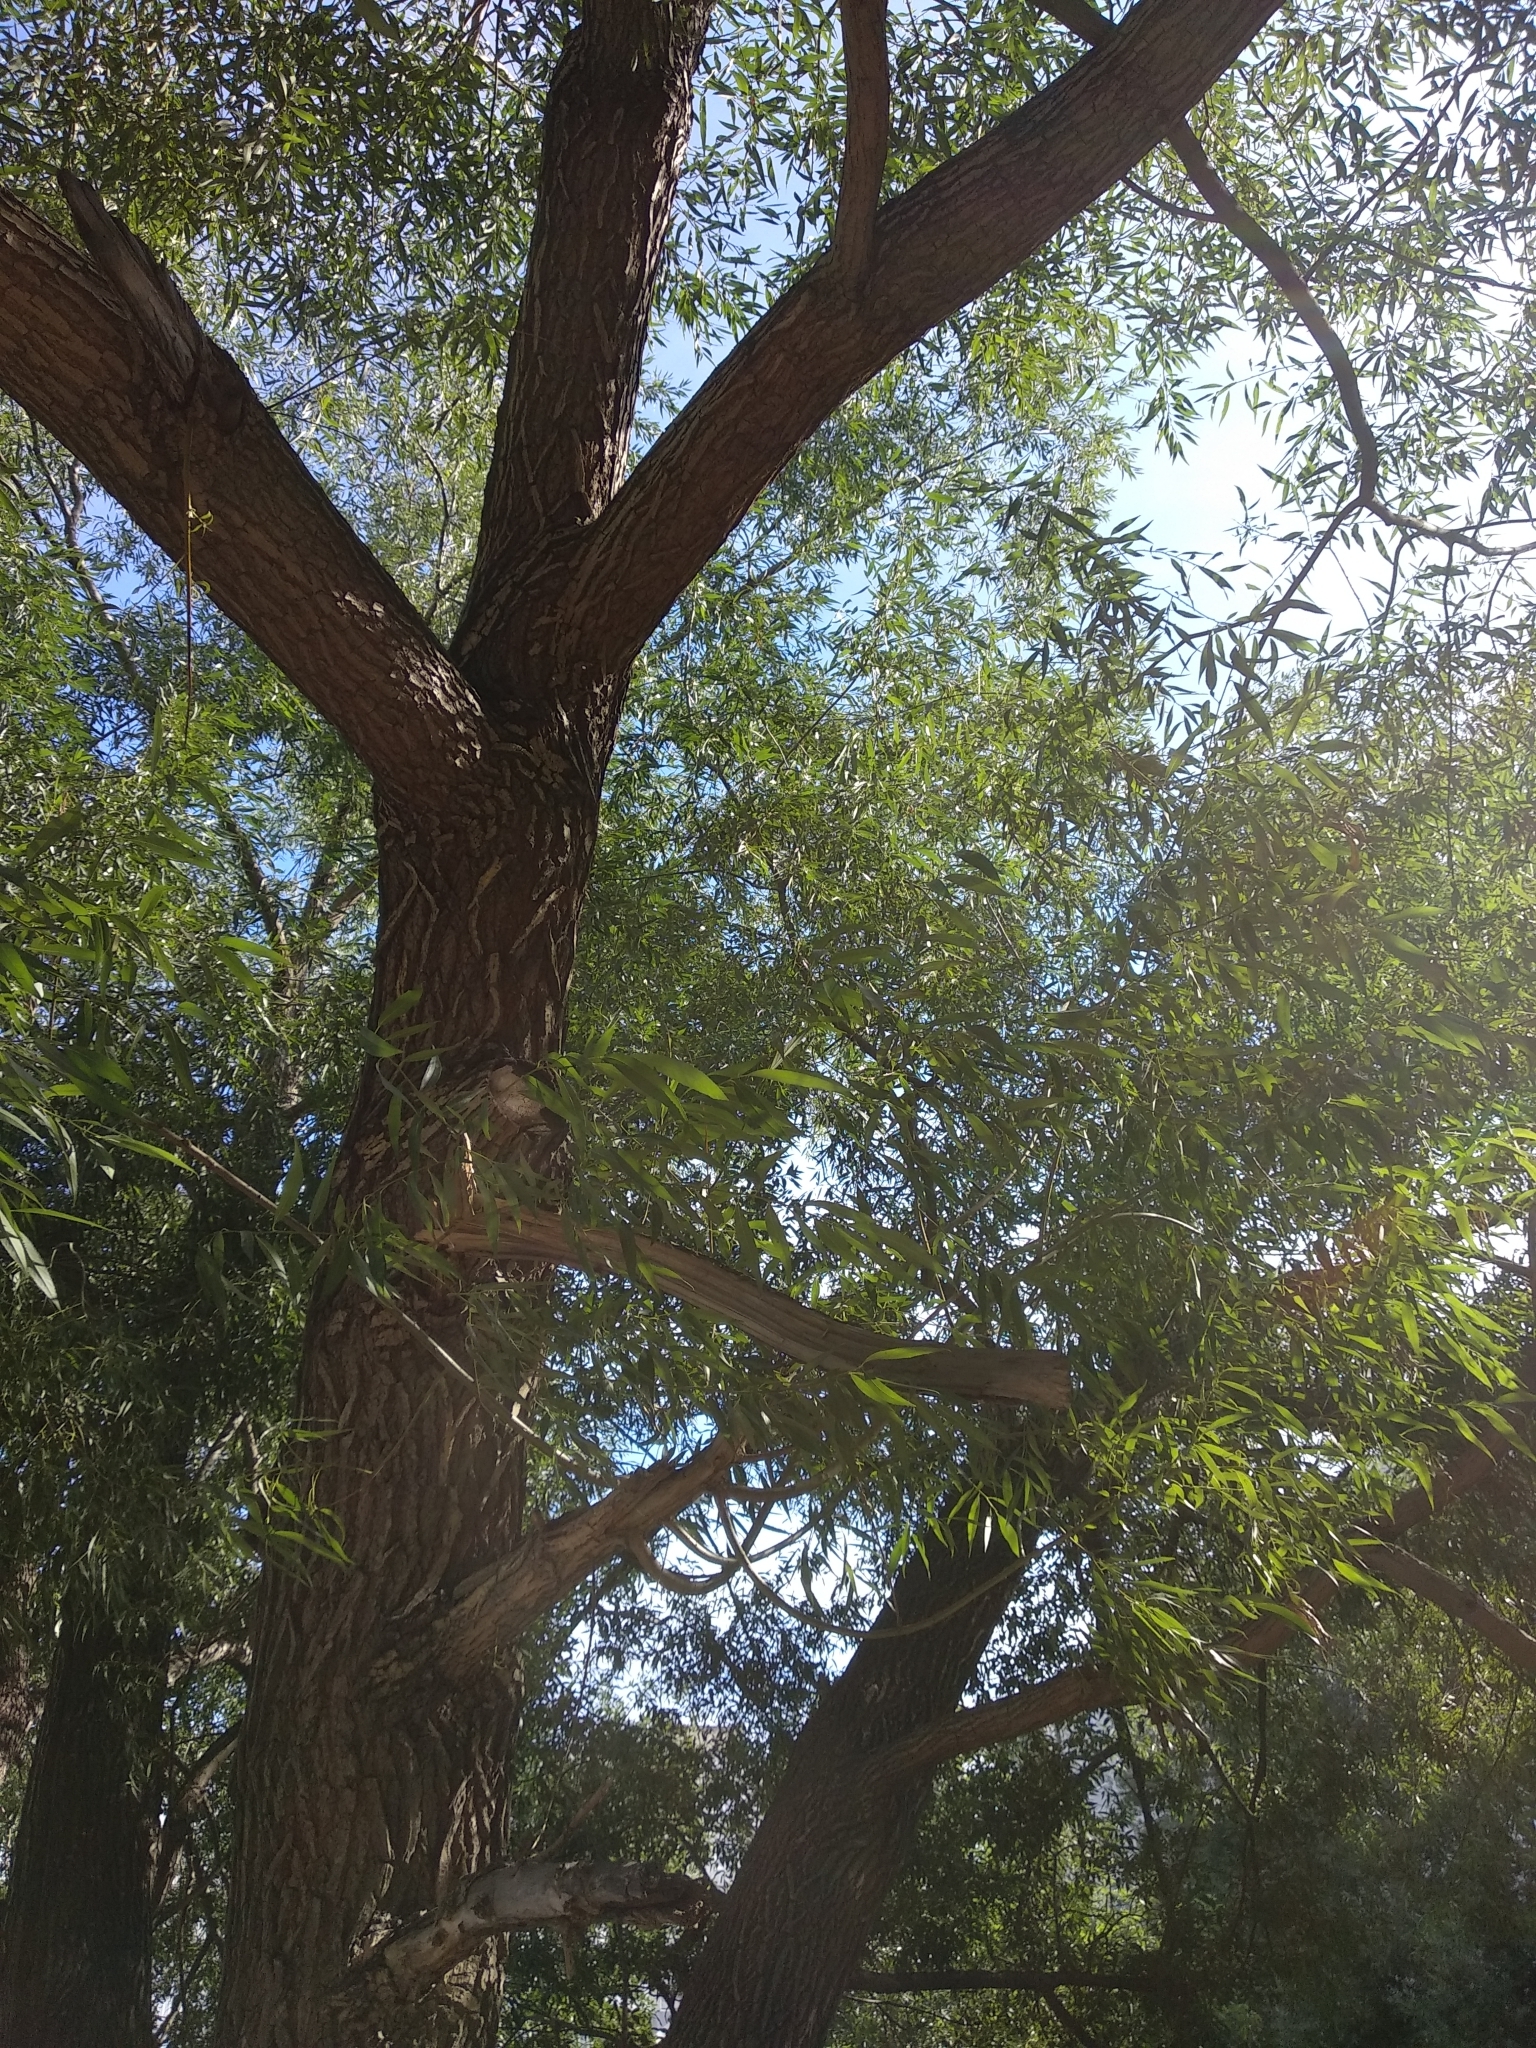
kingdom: Plantae
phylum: Tracheophyta
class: Magnoliopsida
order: Malpighiales
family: Salicaceae
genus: Salix
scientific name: Salix alba
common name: White willow
